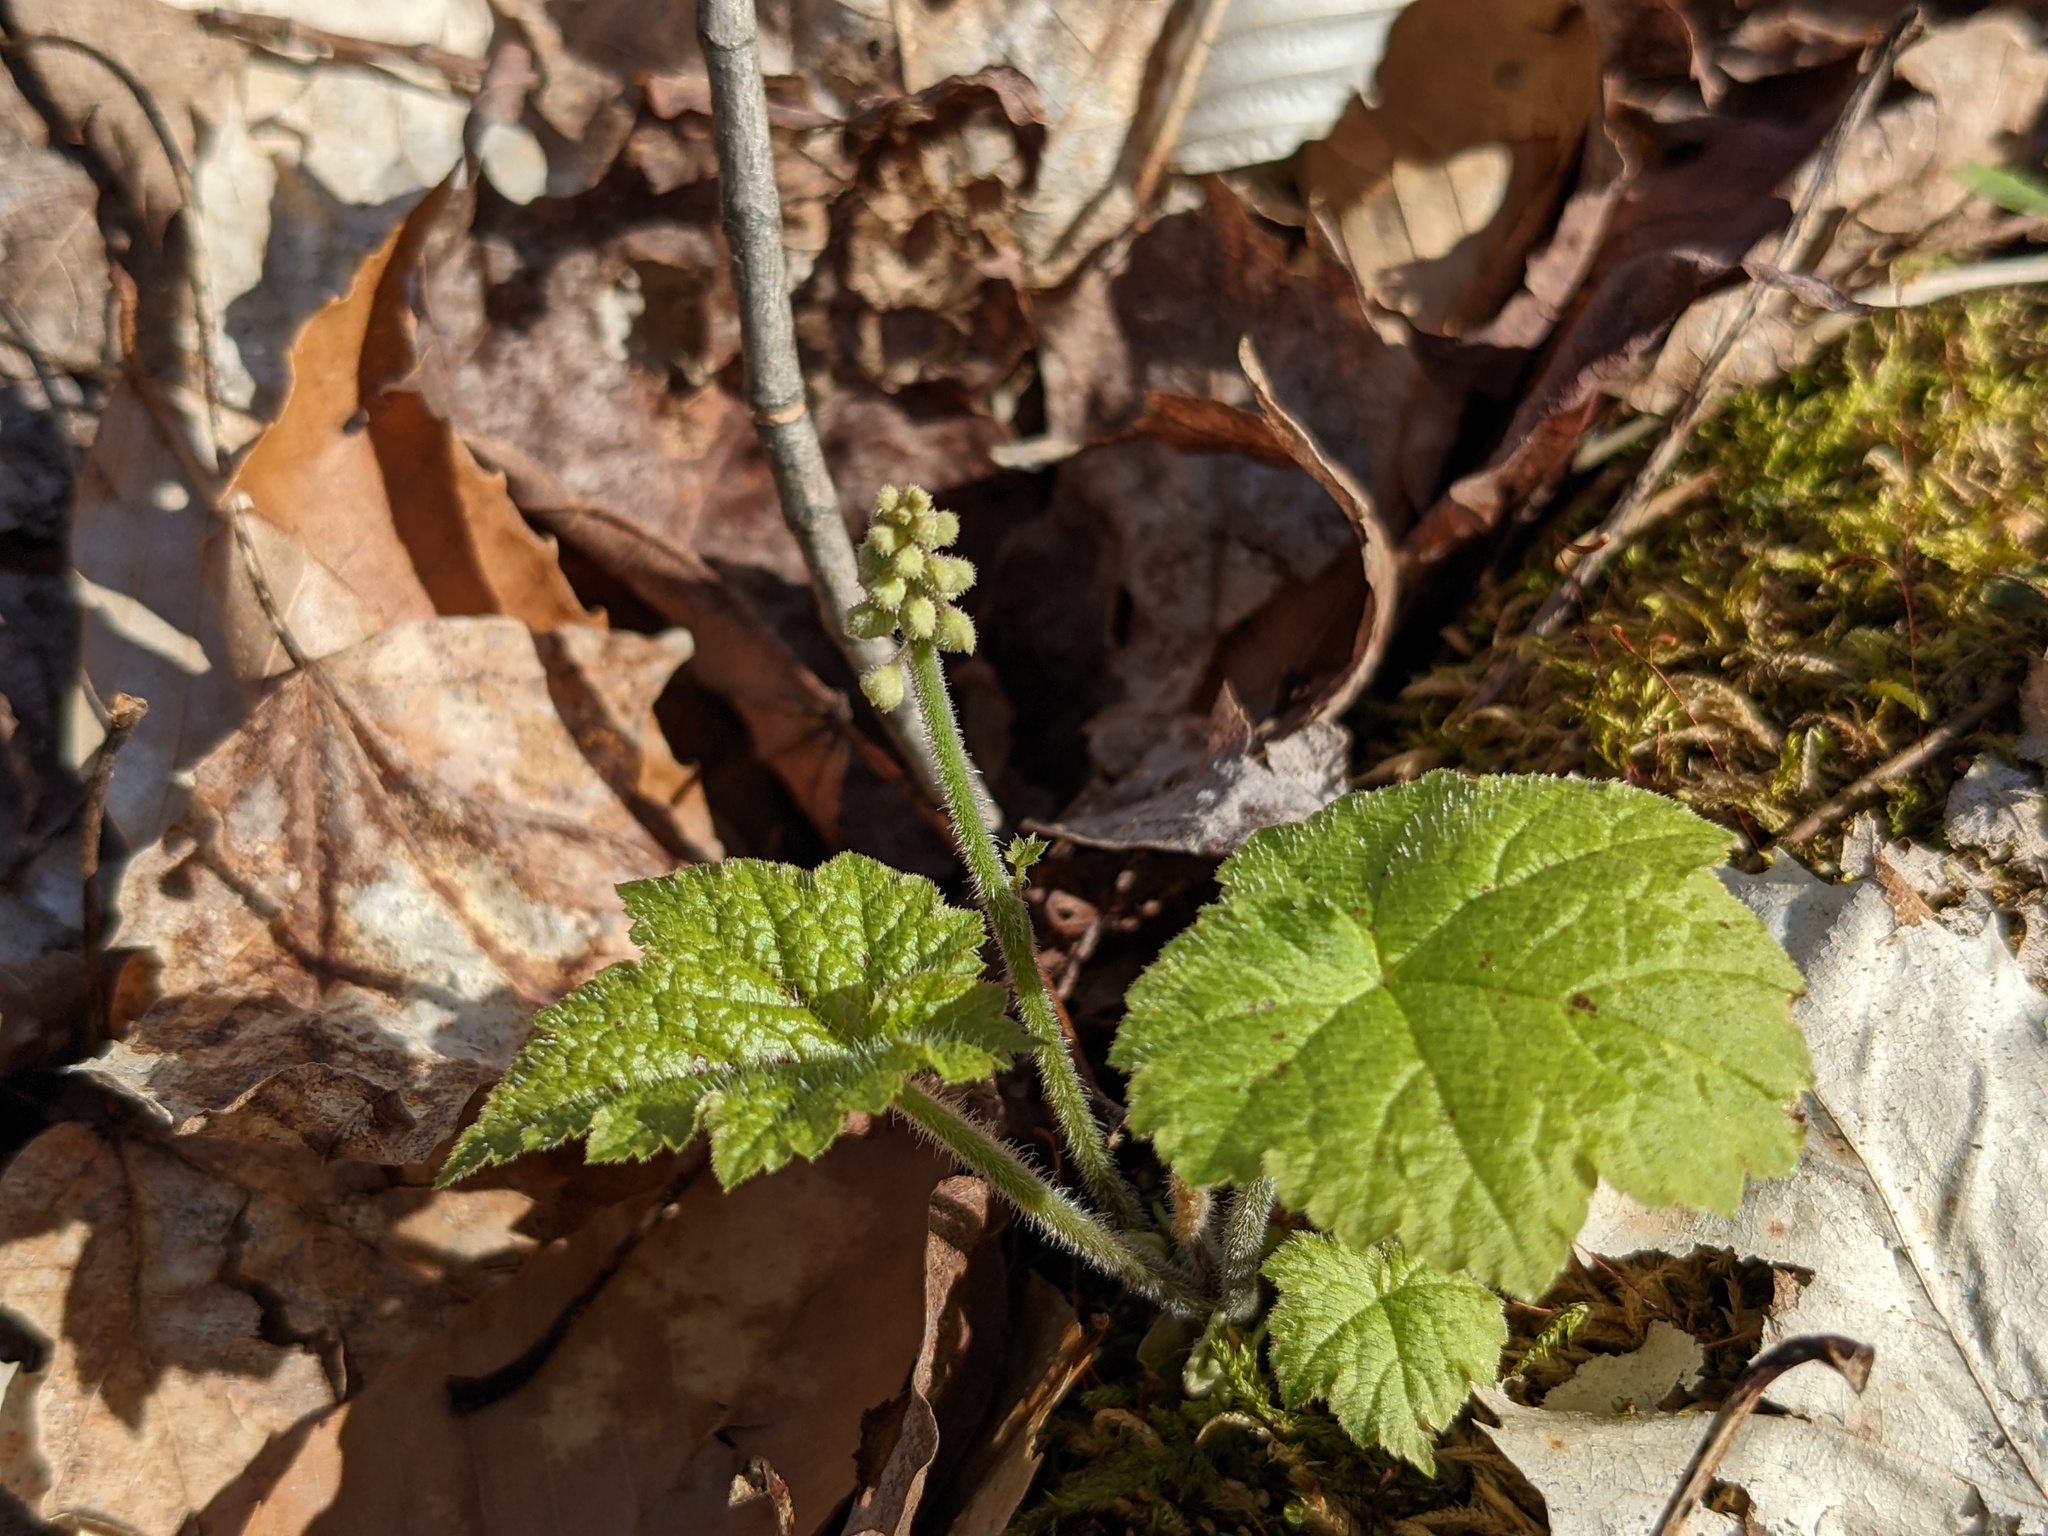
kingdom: Plantae
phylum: Tracheophyta
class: Magnoliopsida
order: Saxifragales
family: Saxifragaceae
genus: Tiarella
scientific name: Tiarella stolonifera
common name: Stoloniferous foamflower
